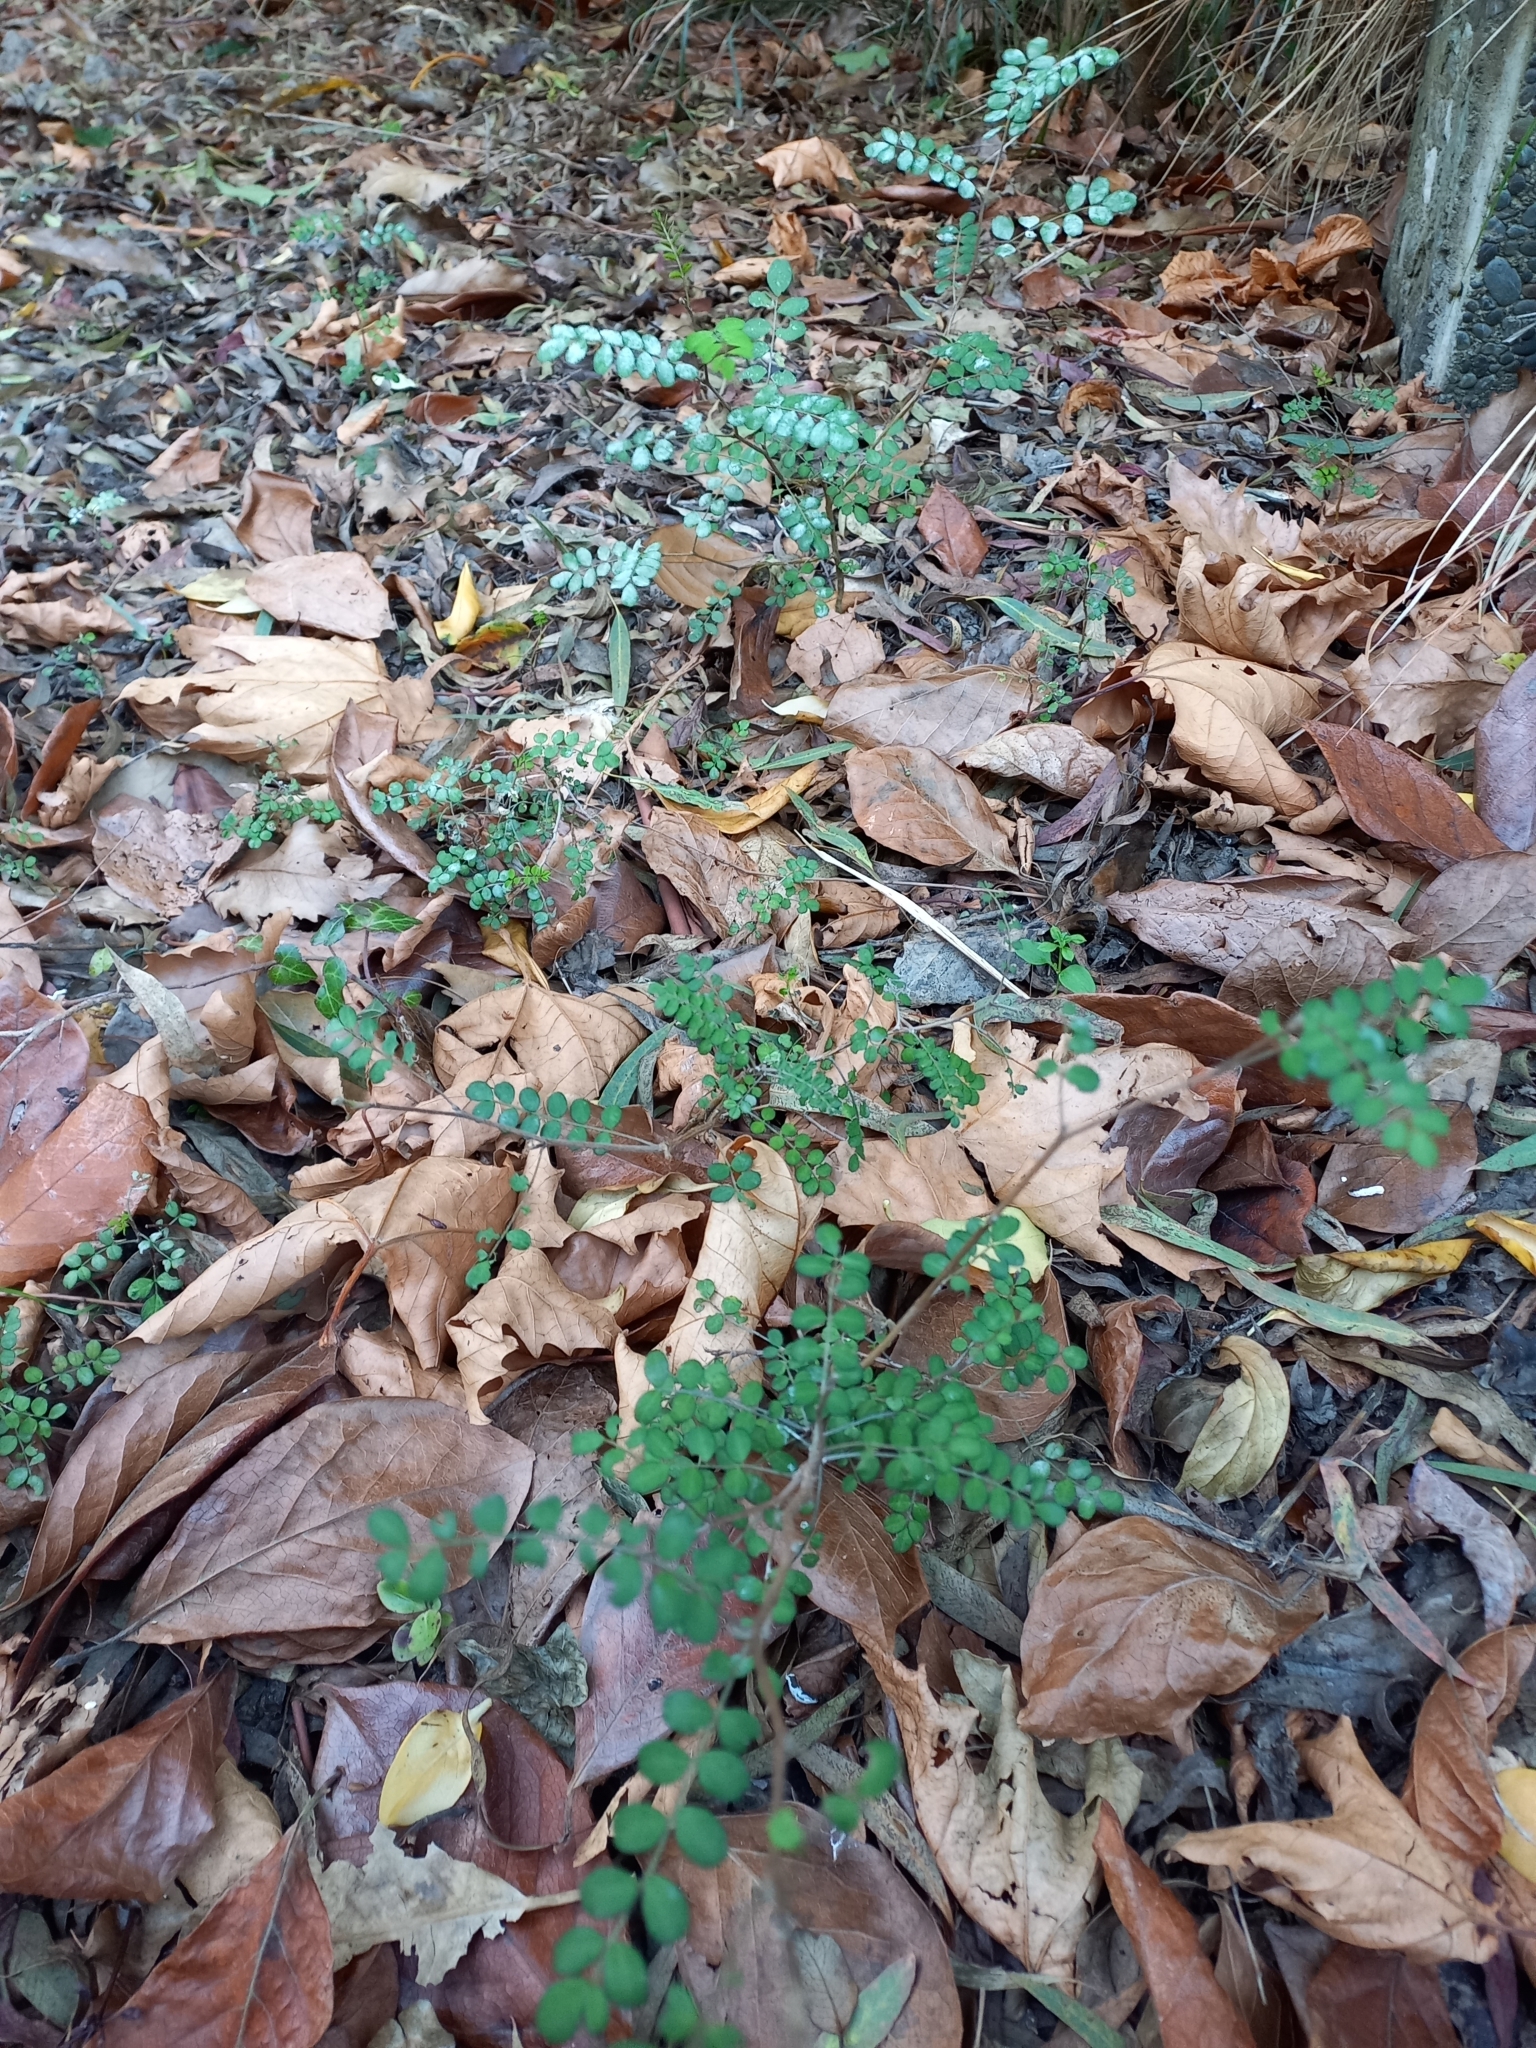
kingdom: Plantae
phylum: Tracheophyta
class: Magnoliopsida
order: Fabales
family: Fabaceae
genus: Sophora
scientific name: Sophora microphylla
